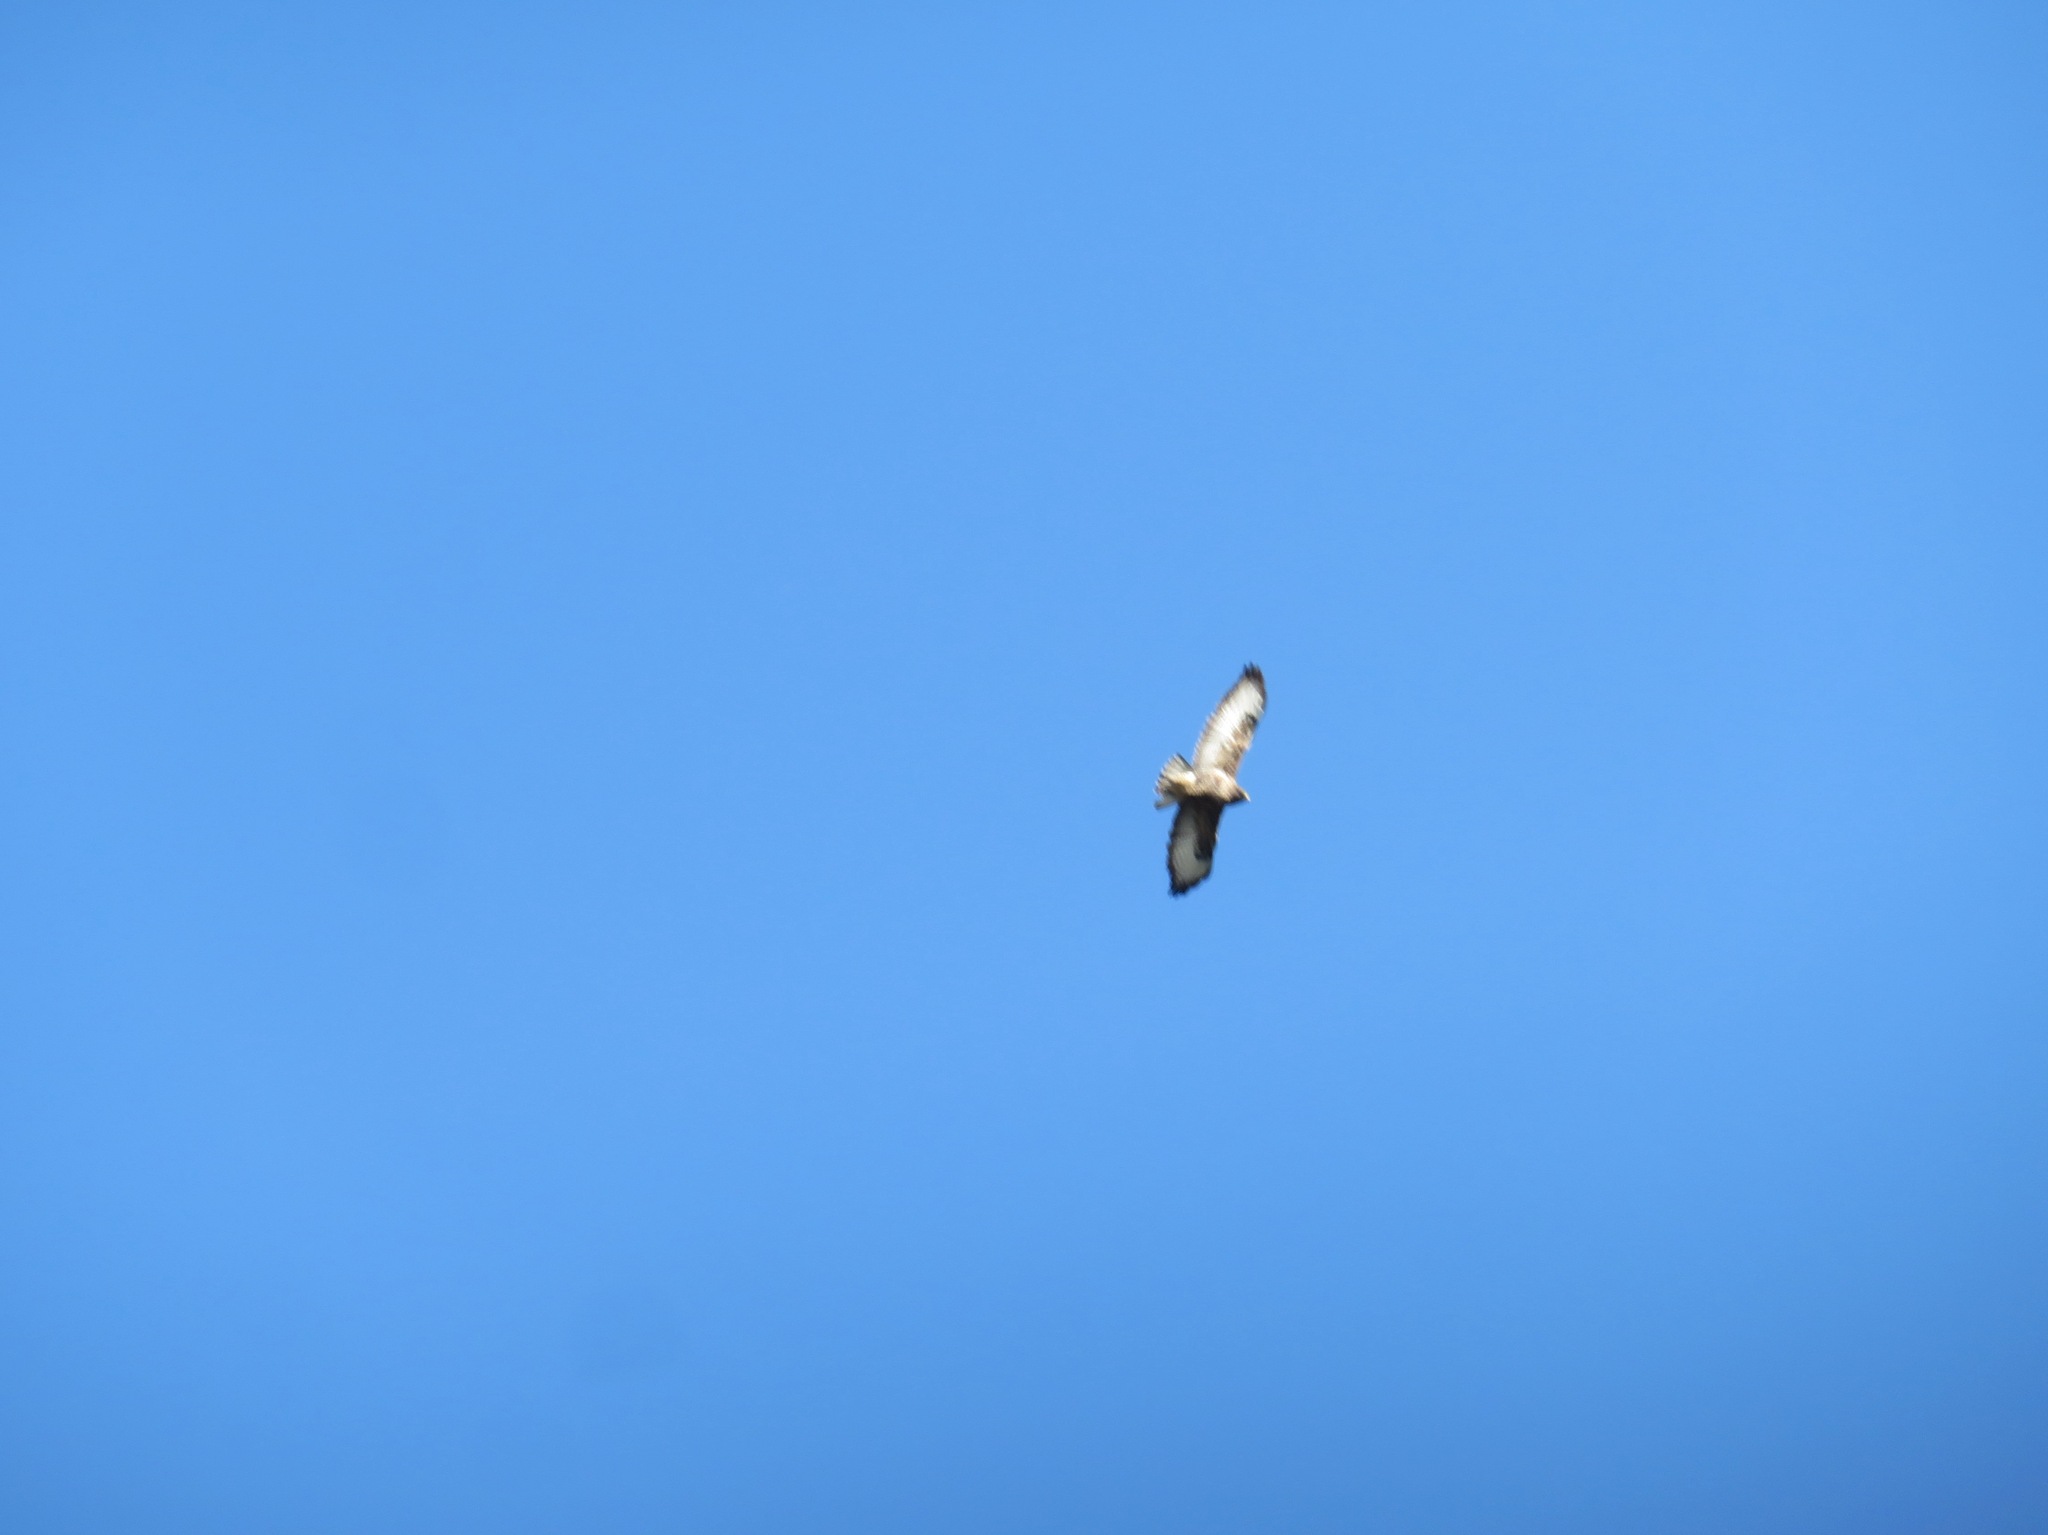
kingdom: Animalia
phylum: Chordata
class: Aves
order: Accipitriformes
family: Accipitridae
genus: Buteo
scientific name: Buteo buteo
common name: Common buzzard
